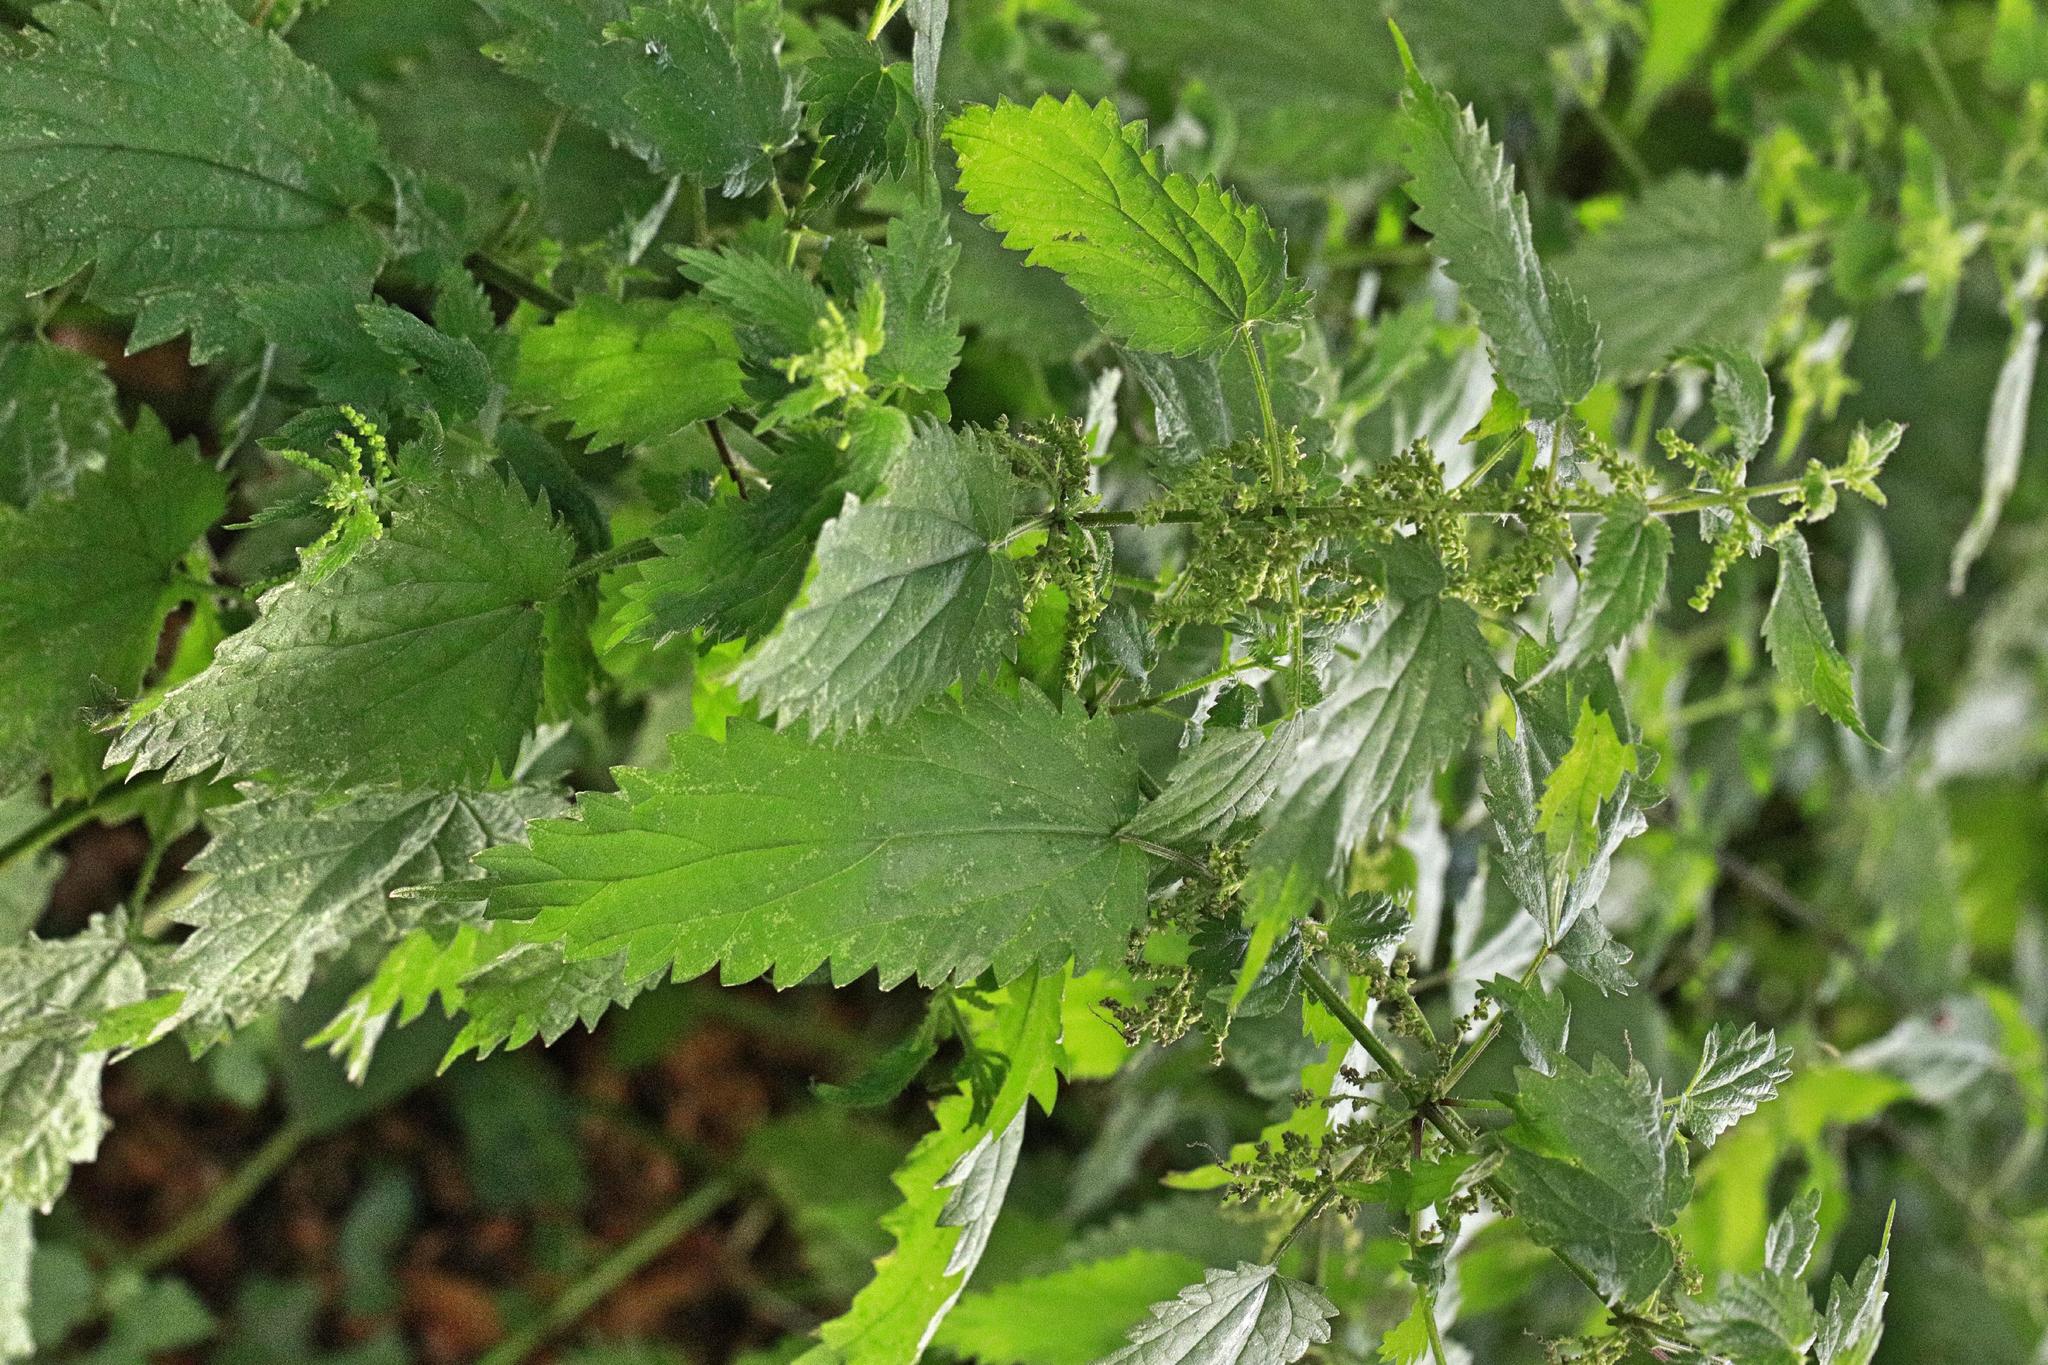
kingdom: Plantae
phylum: Tracheophyta
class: Magnoliopsida
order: Rosales
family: Urticaceae
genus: Urtica
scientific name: Urtica dioica
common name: Common nettle
